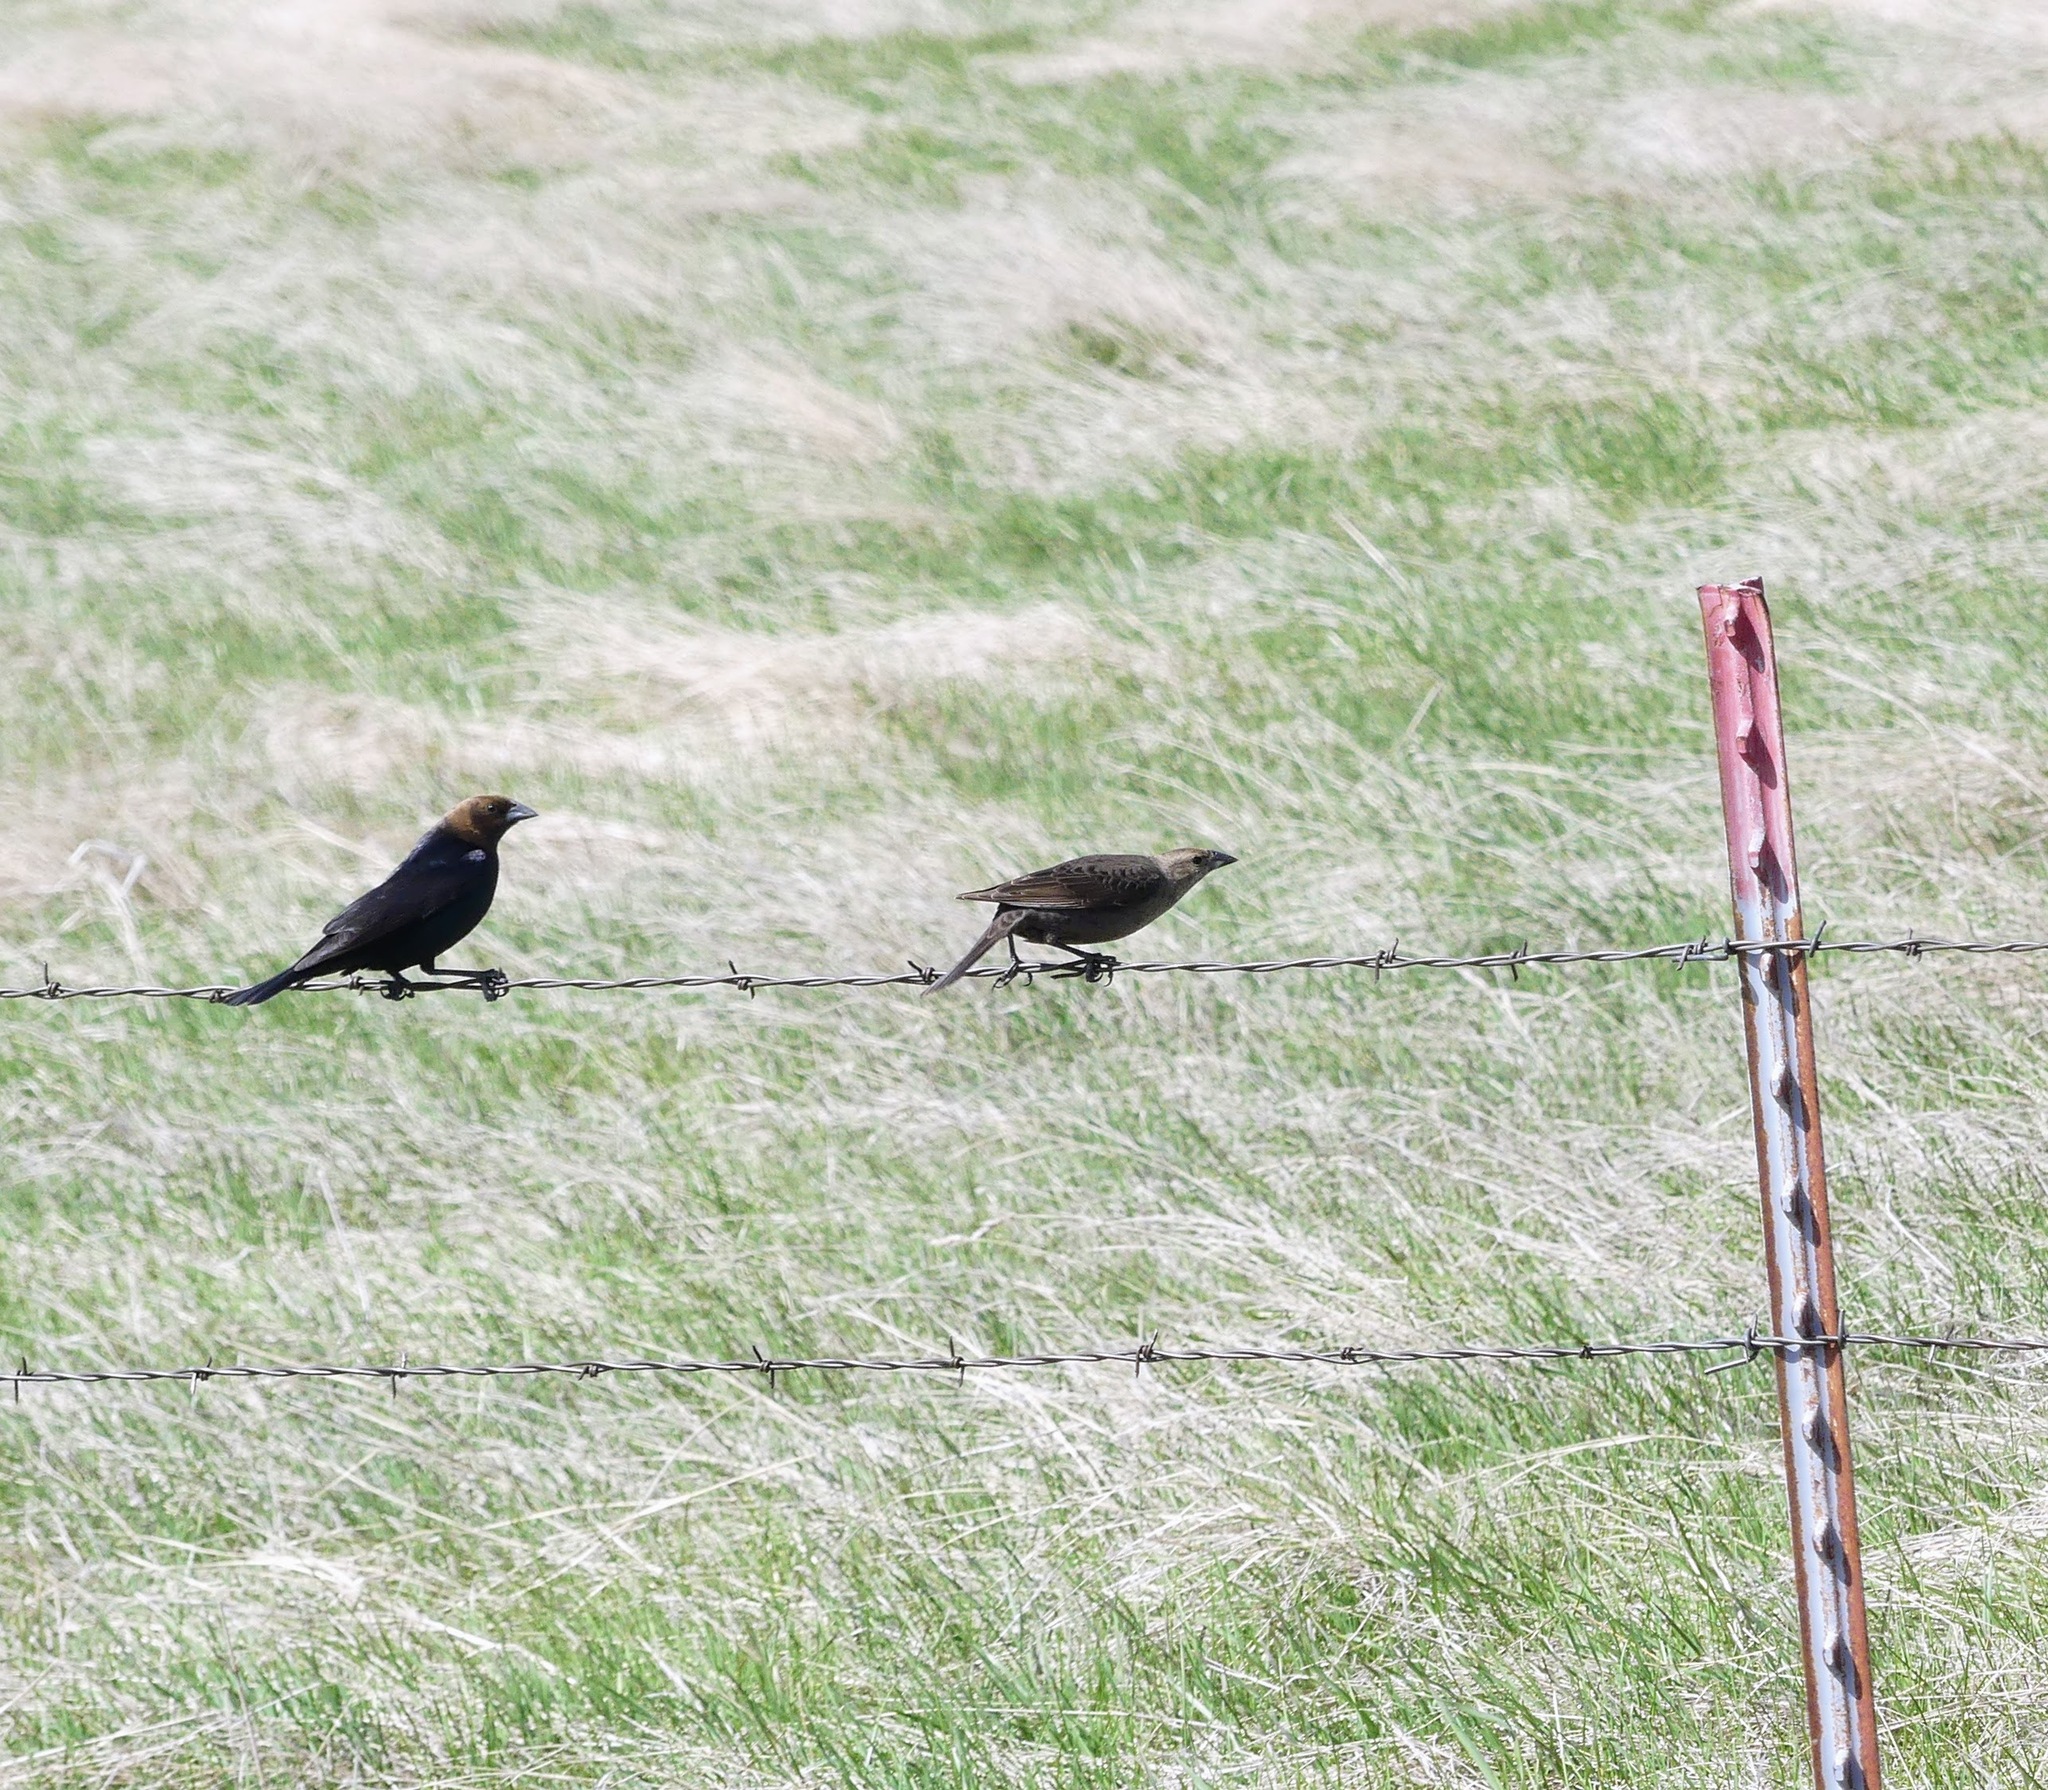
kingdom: Animalia
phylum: Chordata
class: Aves
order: Passeriformes
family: Icteridae
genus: Molothrus
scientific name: Molothrus ater
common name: Brown-headed cowbird
